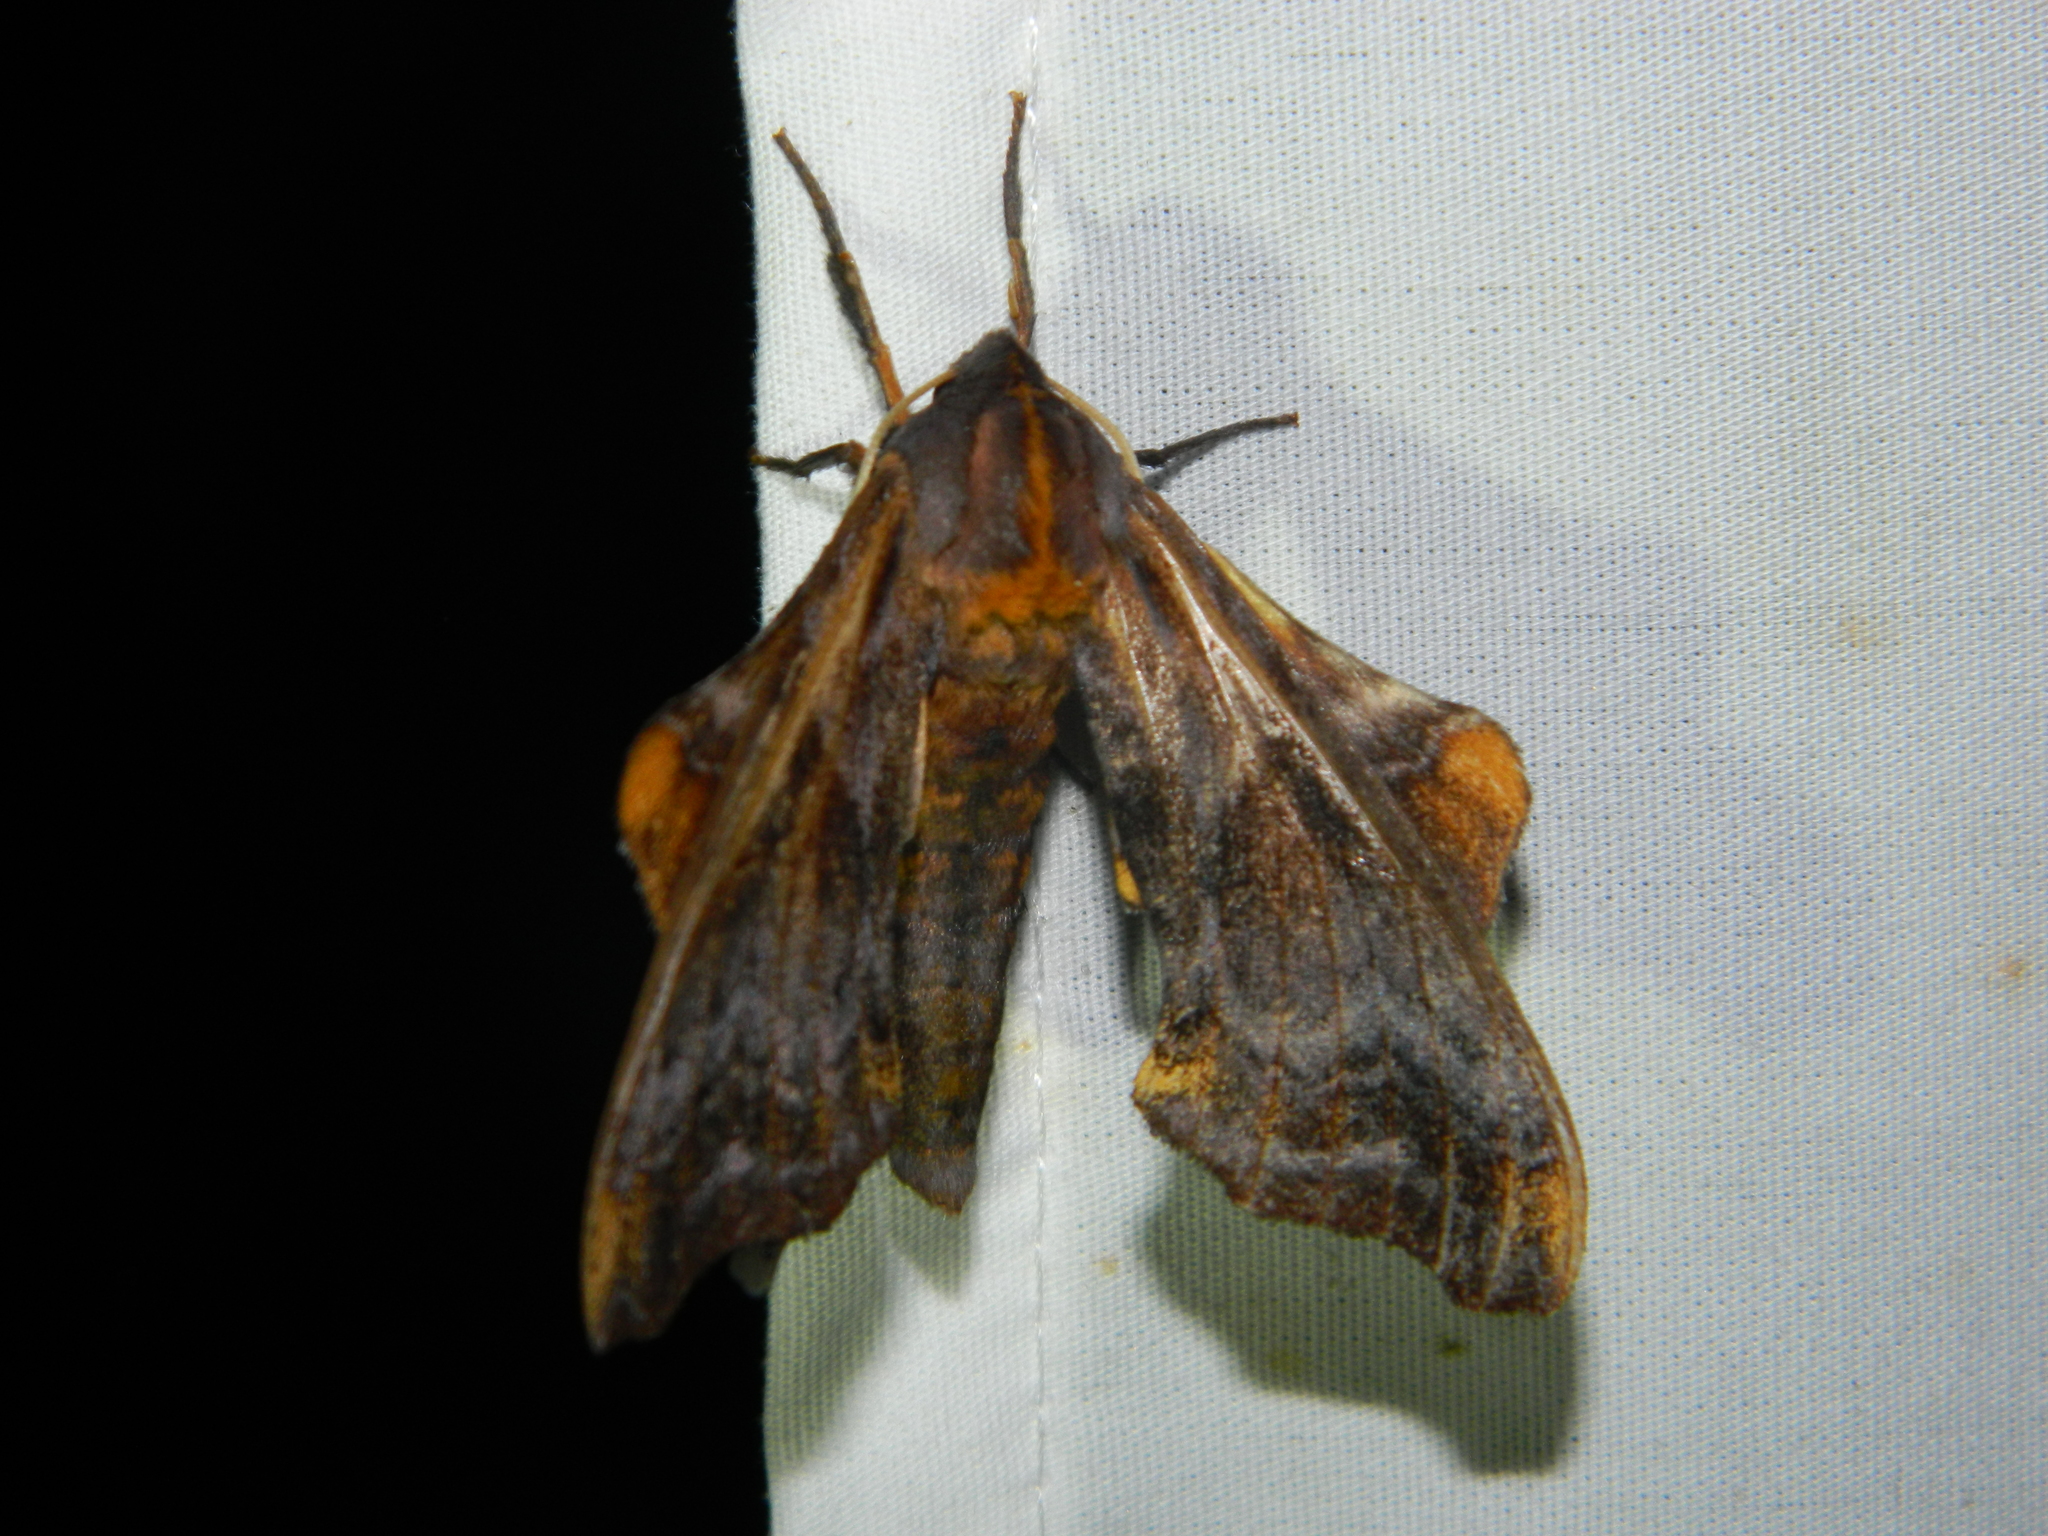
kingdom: Animalia
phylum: Arthropoda
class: Insecta
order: Lepidoptera
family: Sphingidae
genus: Paonias
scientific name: Paonias myops
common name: Small-eyed sphinx
